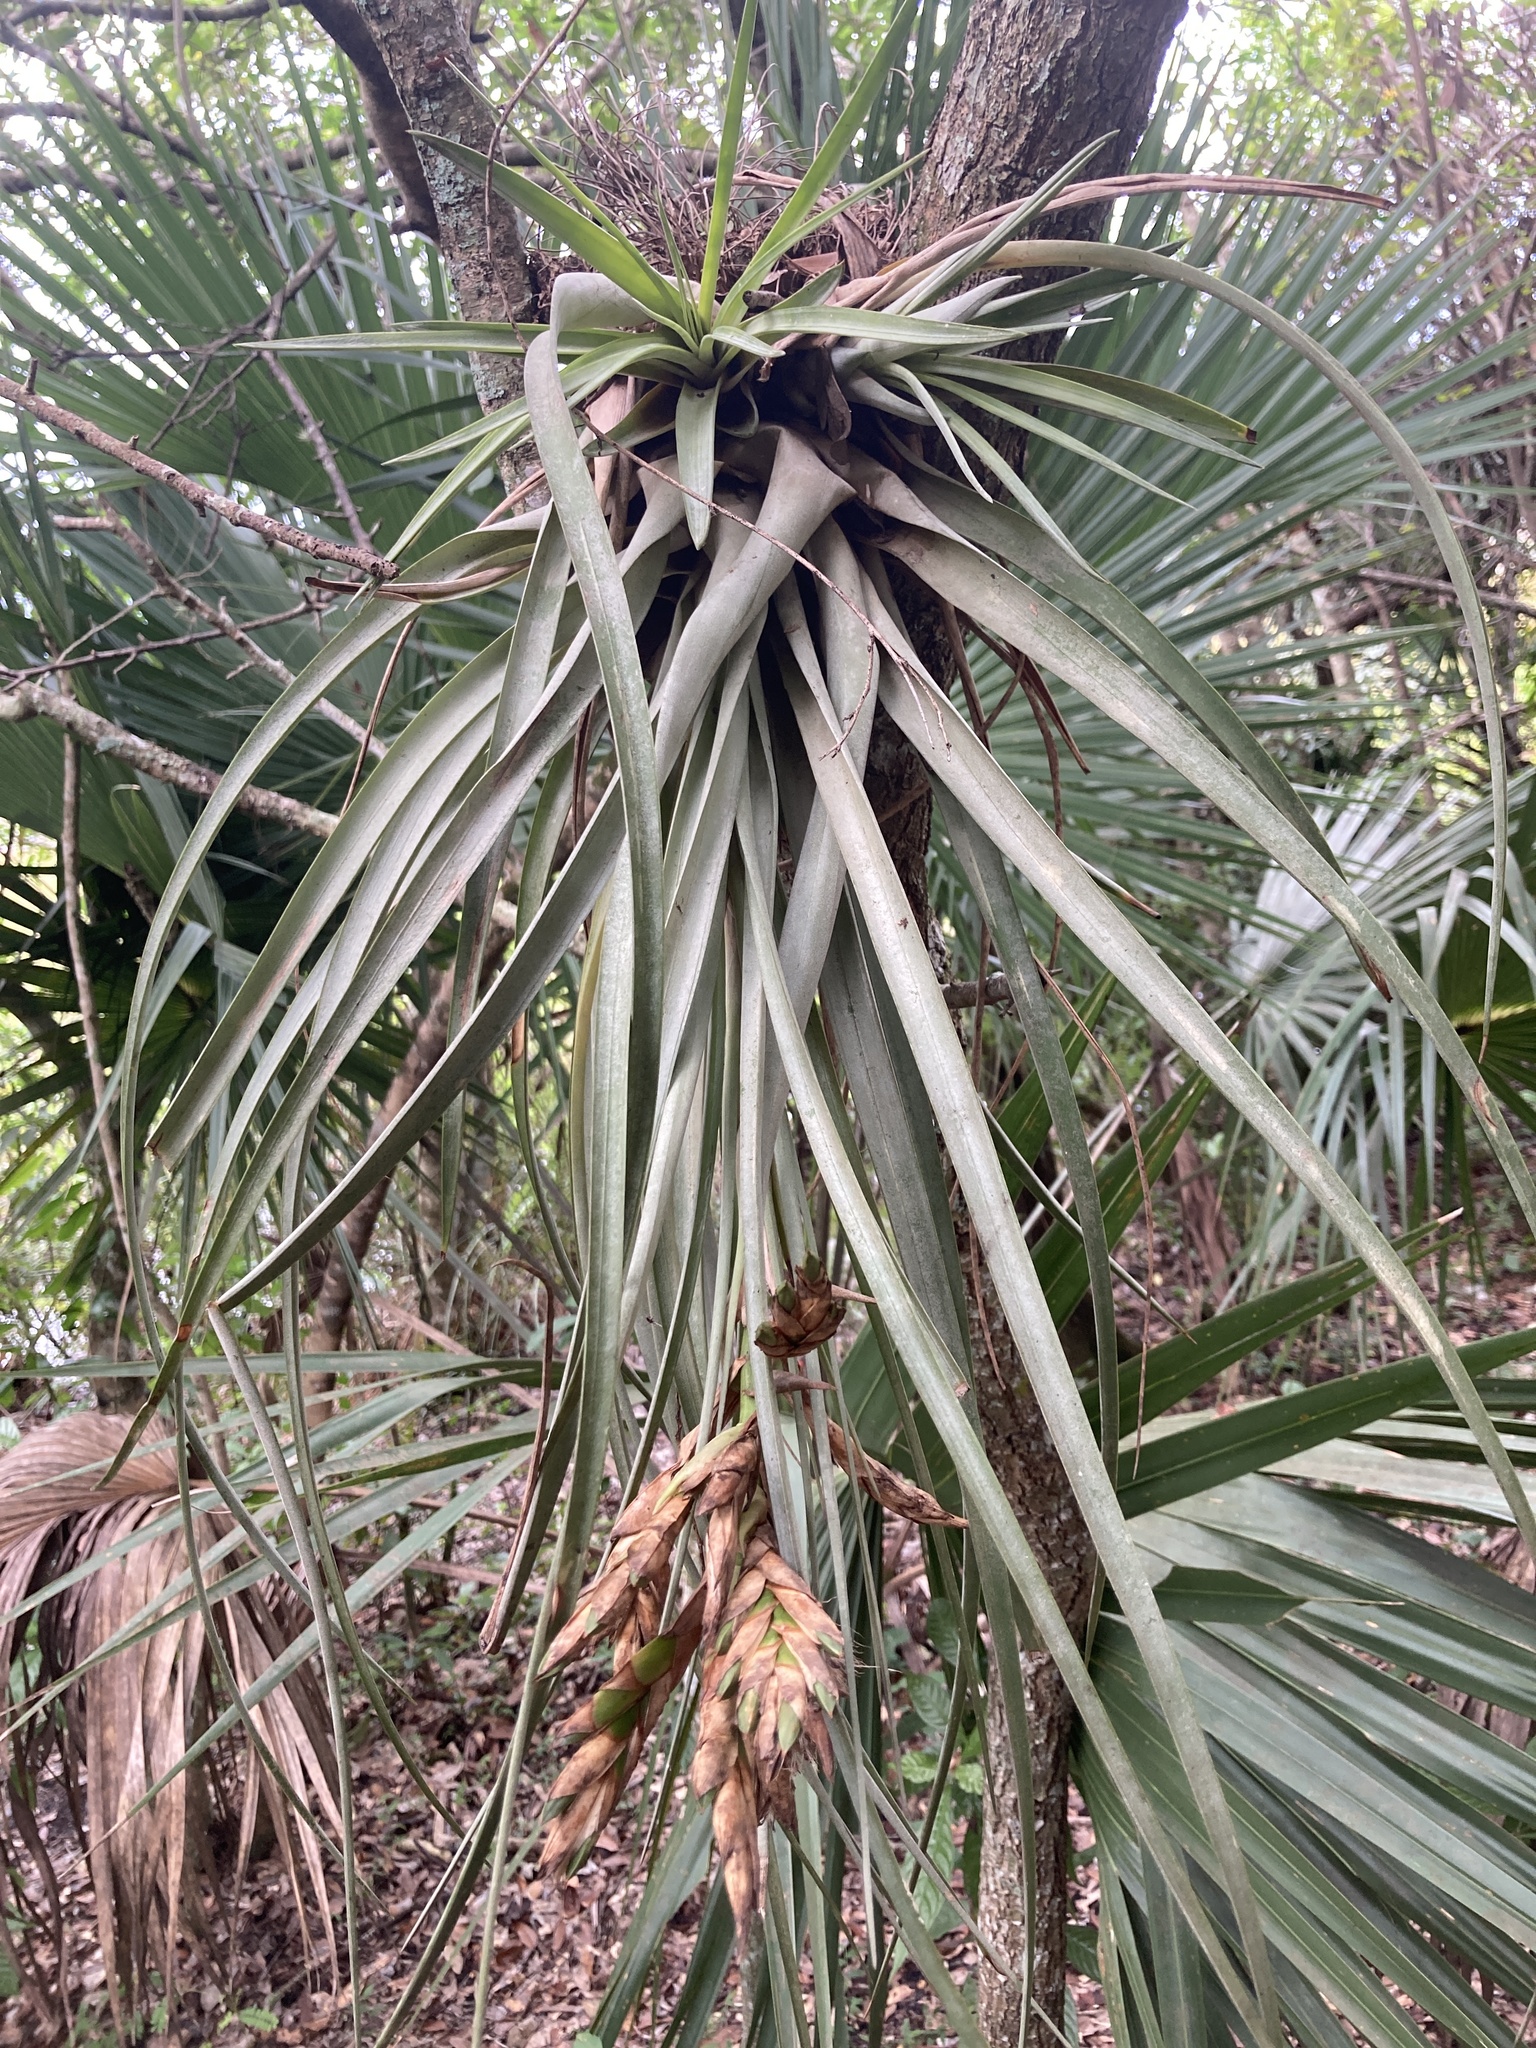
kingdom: Plantae
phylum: Tracheophyta
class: Liliopsida
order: Poales
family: Bromeliaceae
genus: Tillandsia
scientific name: Tillandsia fasciculata
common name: Giant airplant
